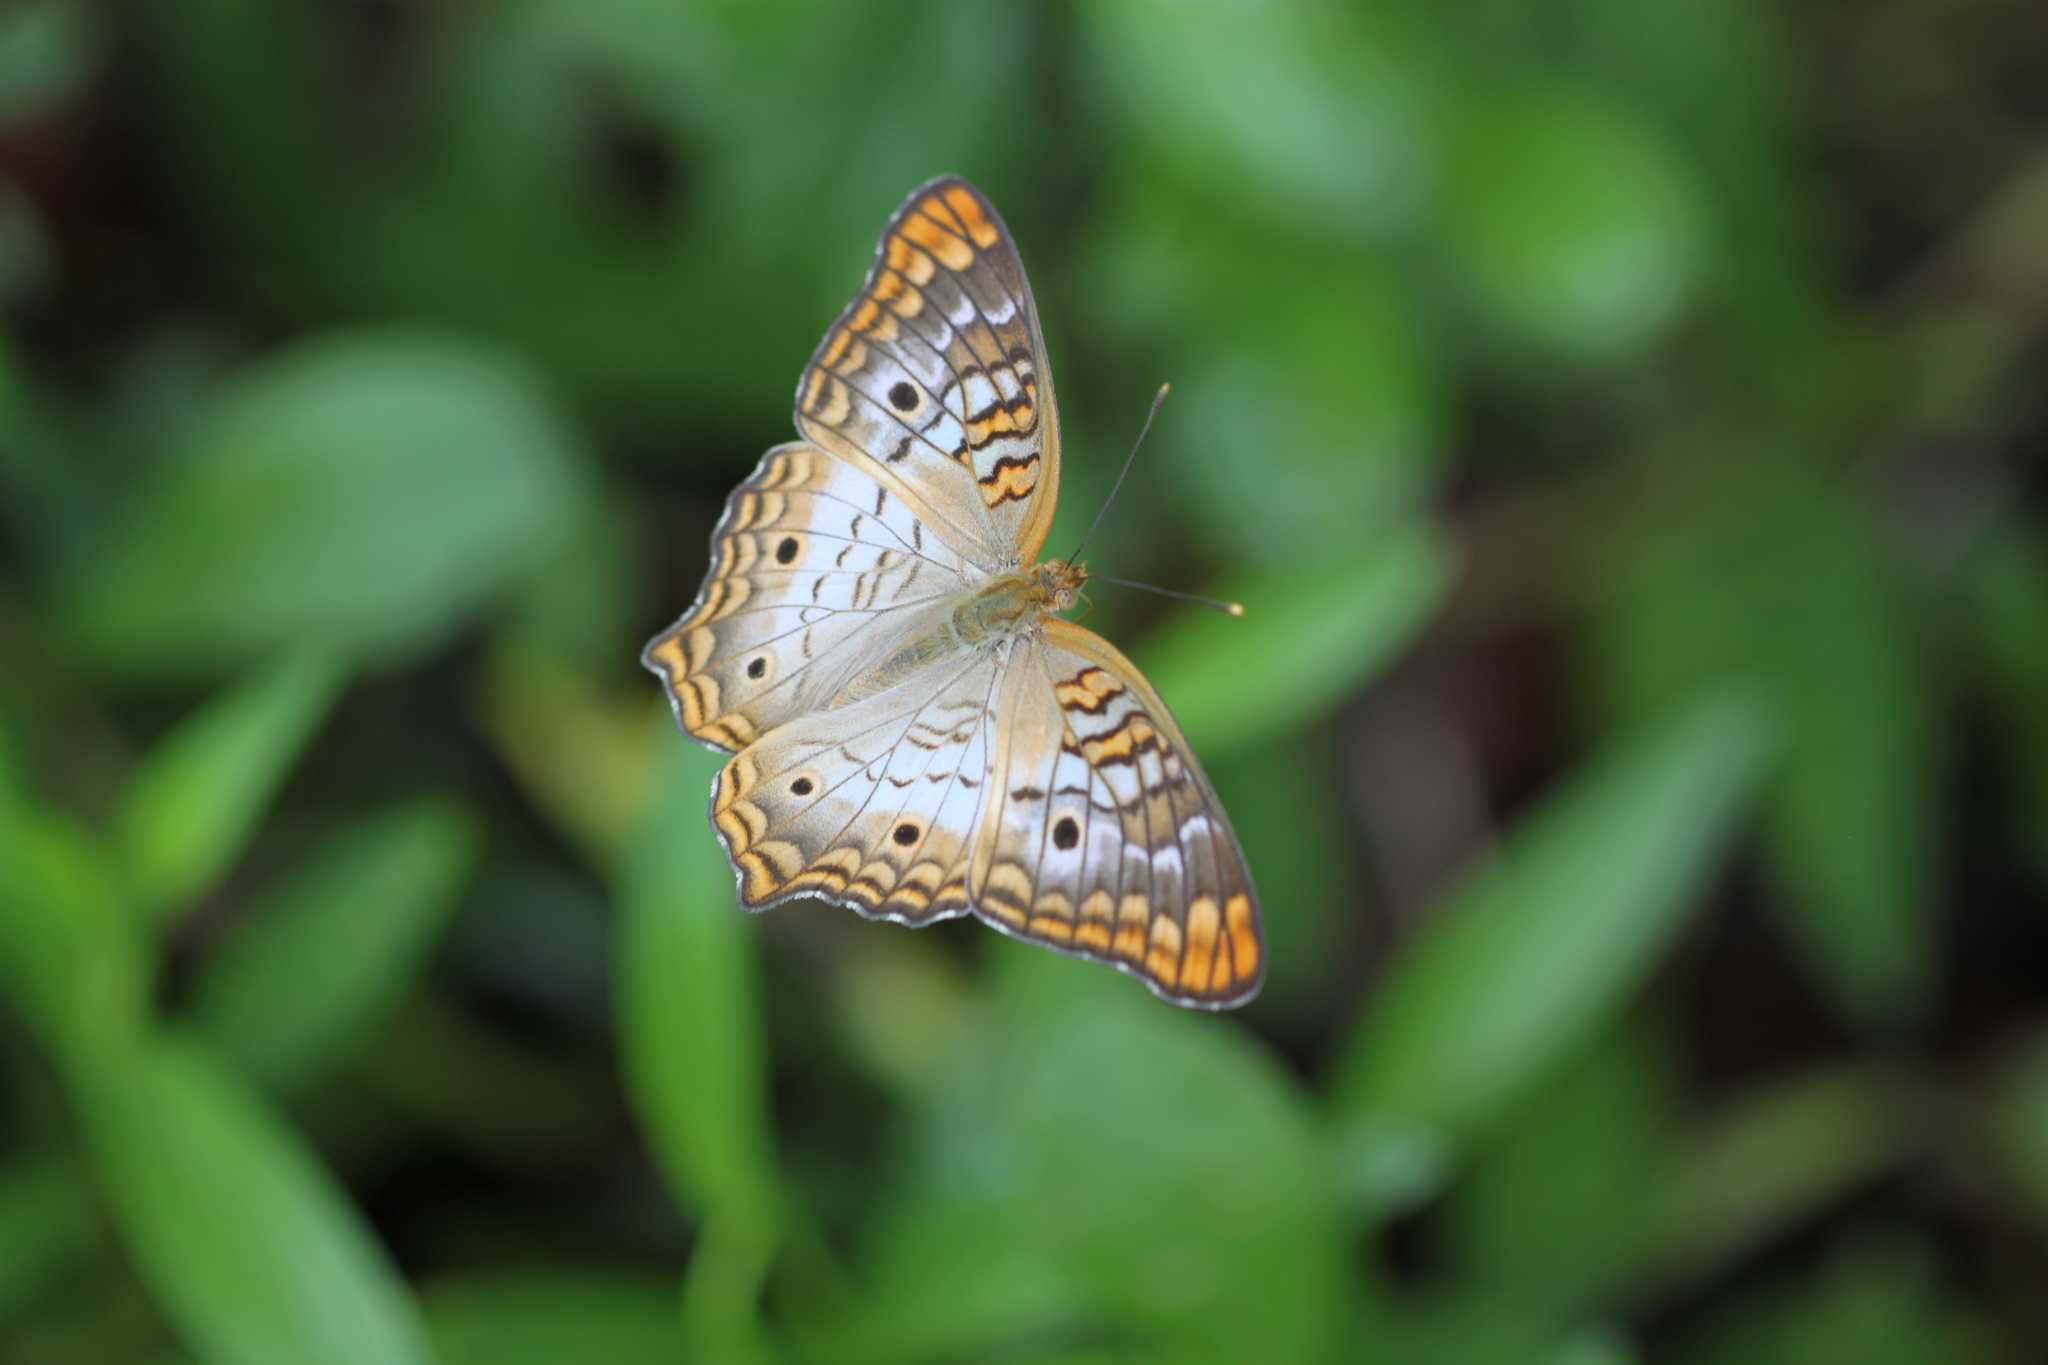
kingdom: Animalia
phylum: Arthropoda
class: Insecta
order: Lepidoptera
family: Nymphalidae
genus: Anartia
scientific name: Anartia jatrophae
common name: White peacock
